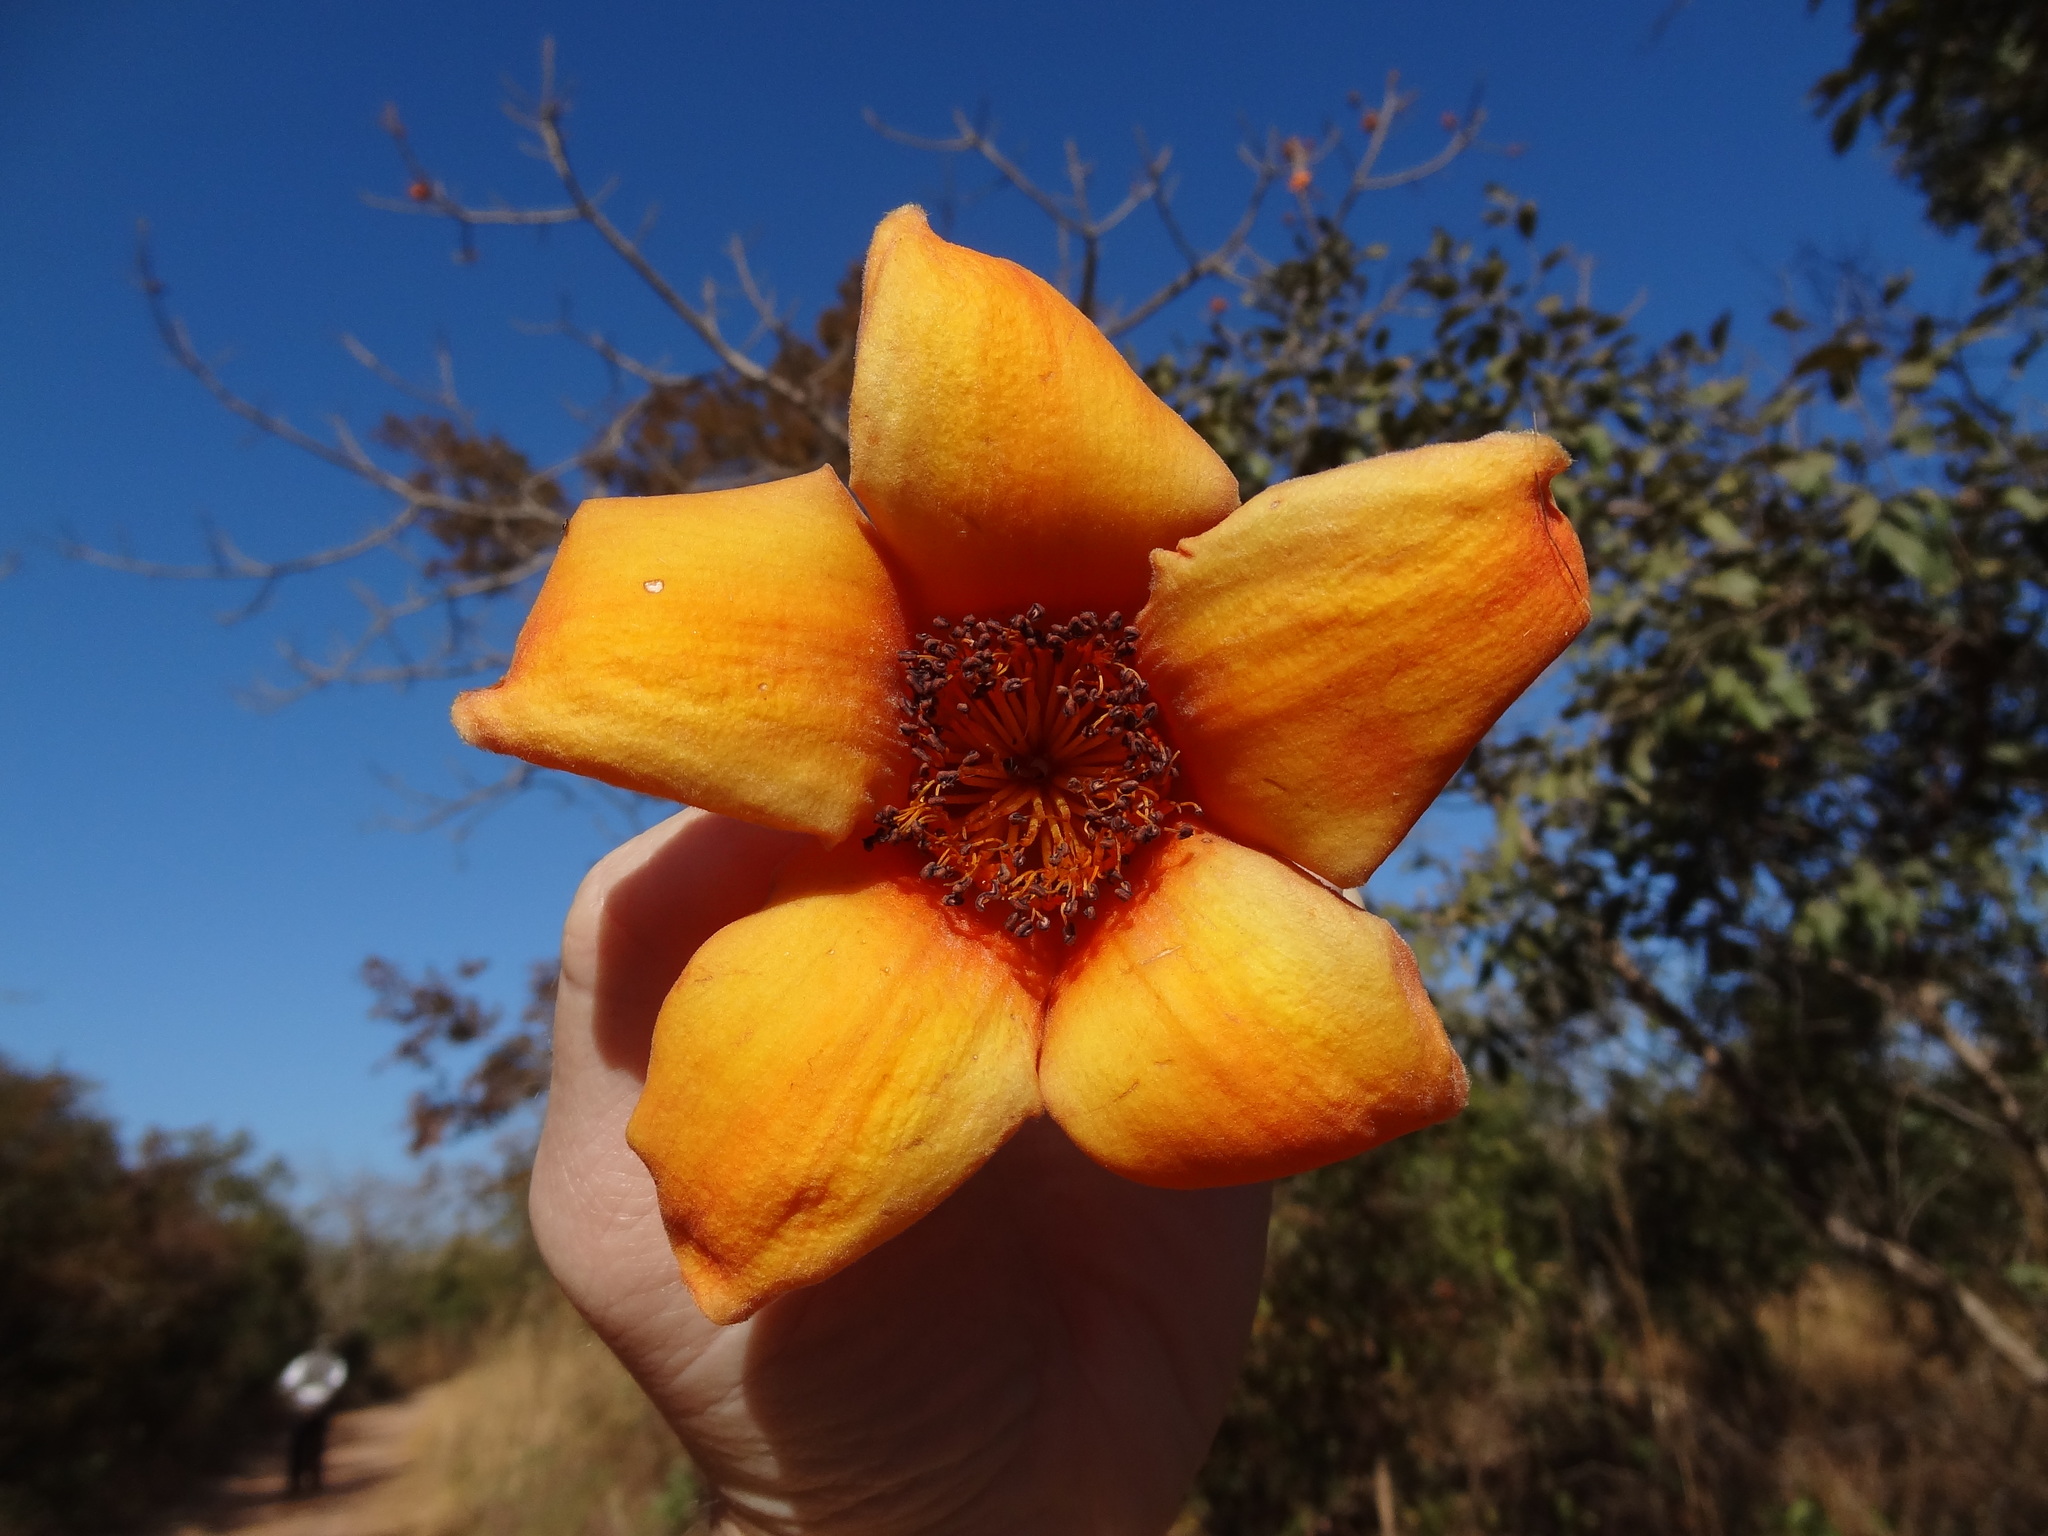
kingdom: Plantae
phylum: Tracheophyta
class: Magnoliopsida
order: Malvales
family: Malvaceae
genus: Bombax
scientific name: Bombax costatum
